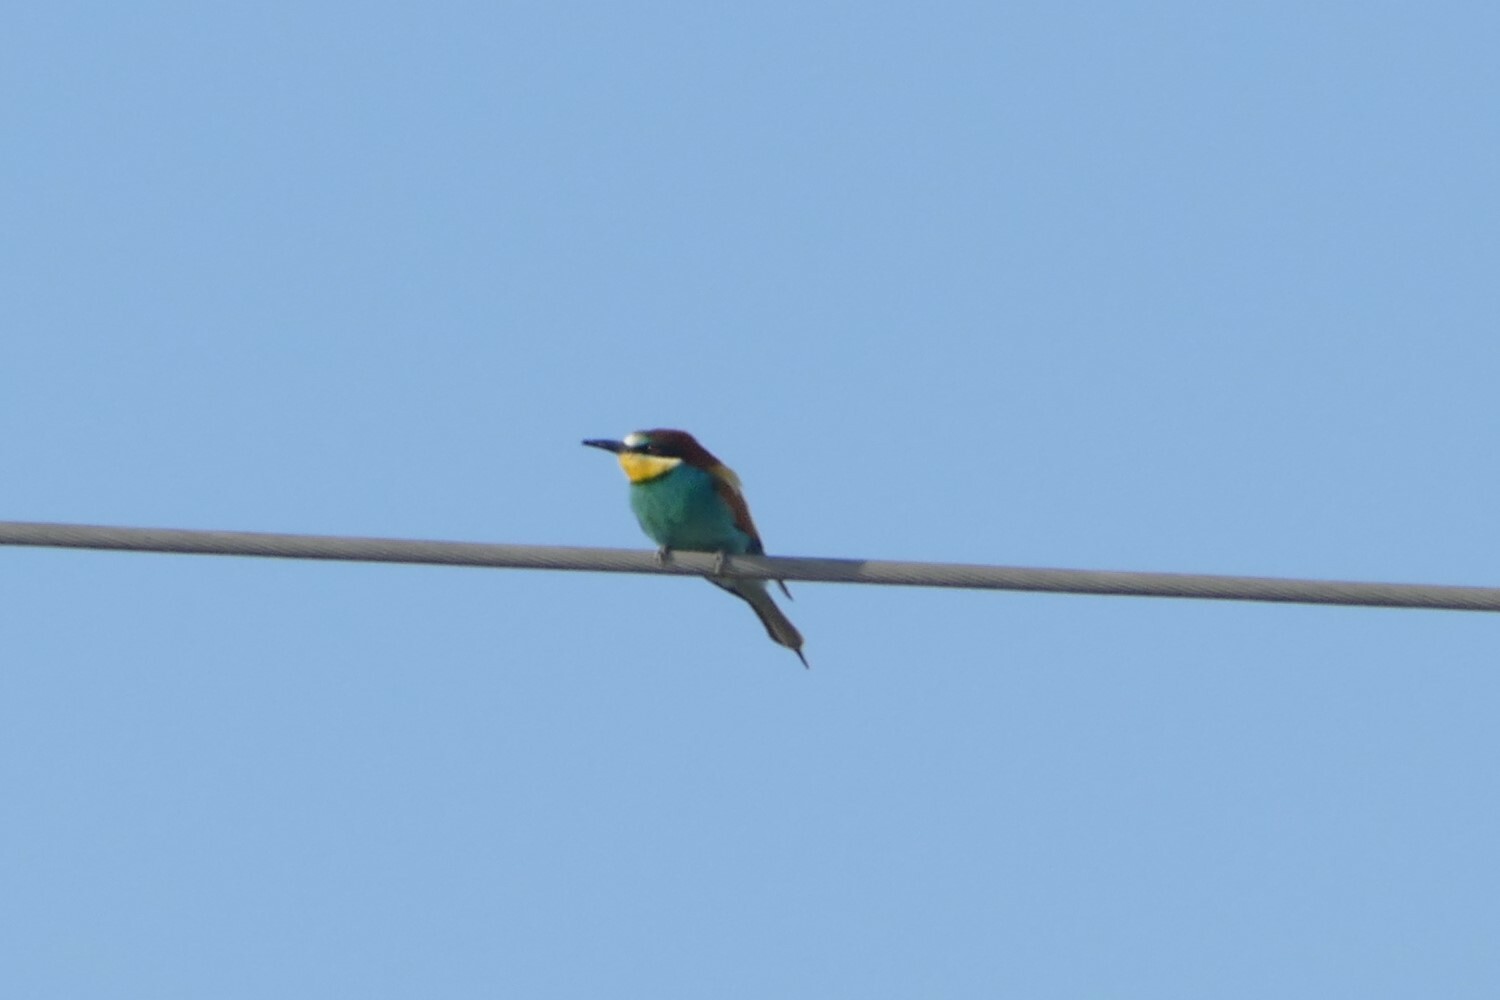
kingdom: Animalia
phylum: Chordata
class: Aves
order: Coraciiformes
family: Meropidae
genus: Merops
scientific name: Merops apiaster
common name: European bee-eater
